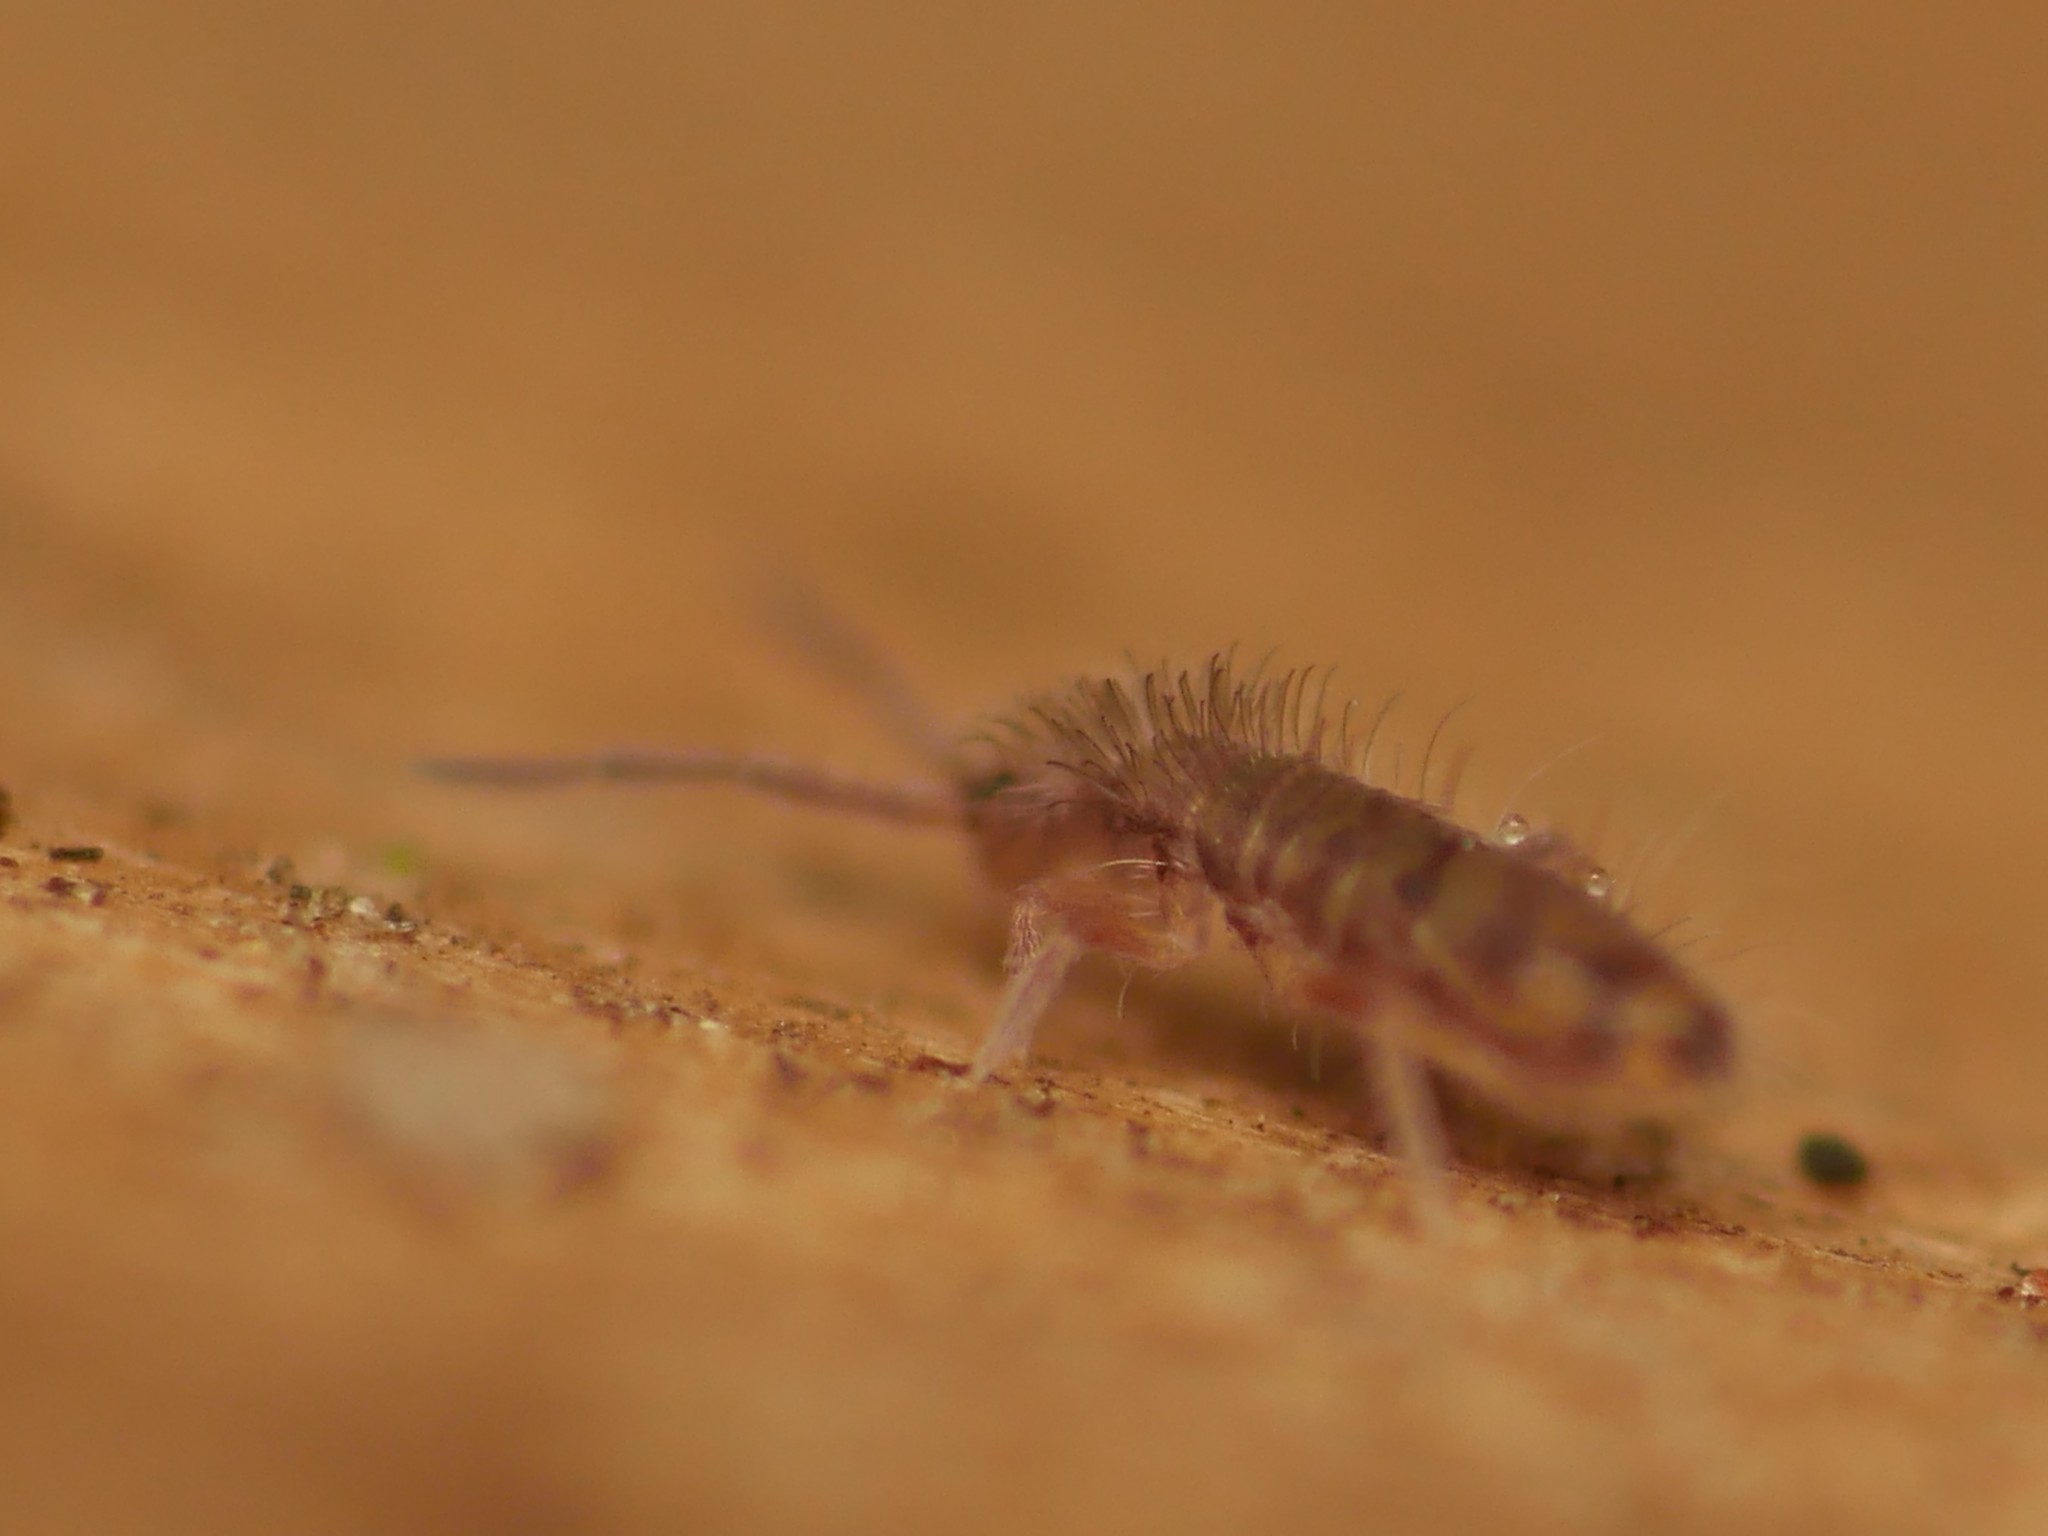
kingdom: Animalia
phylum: Arthropoda
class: Collembola
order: Entomobryomorpha
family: Entomobryidae
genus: Entomobrya
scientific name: Entomobrya multifasciata
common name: Springtail
